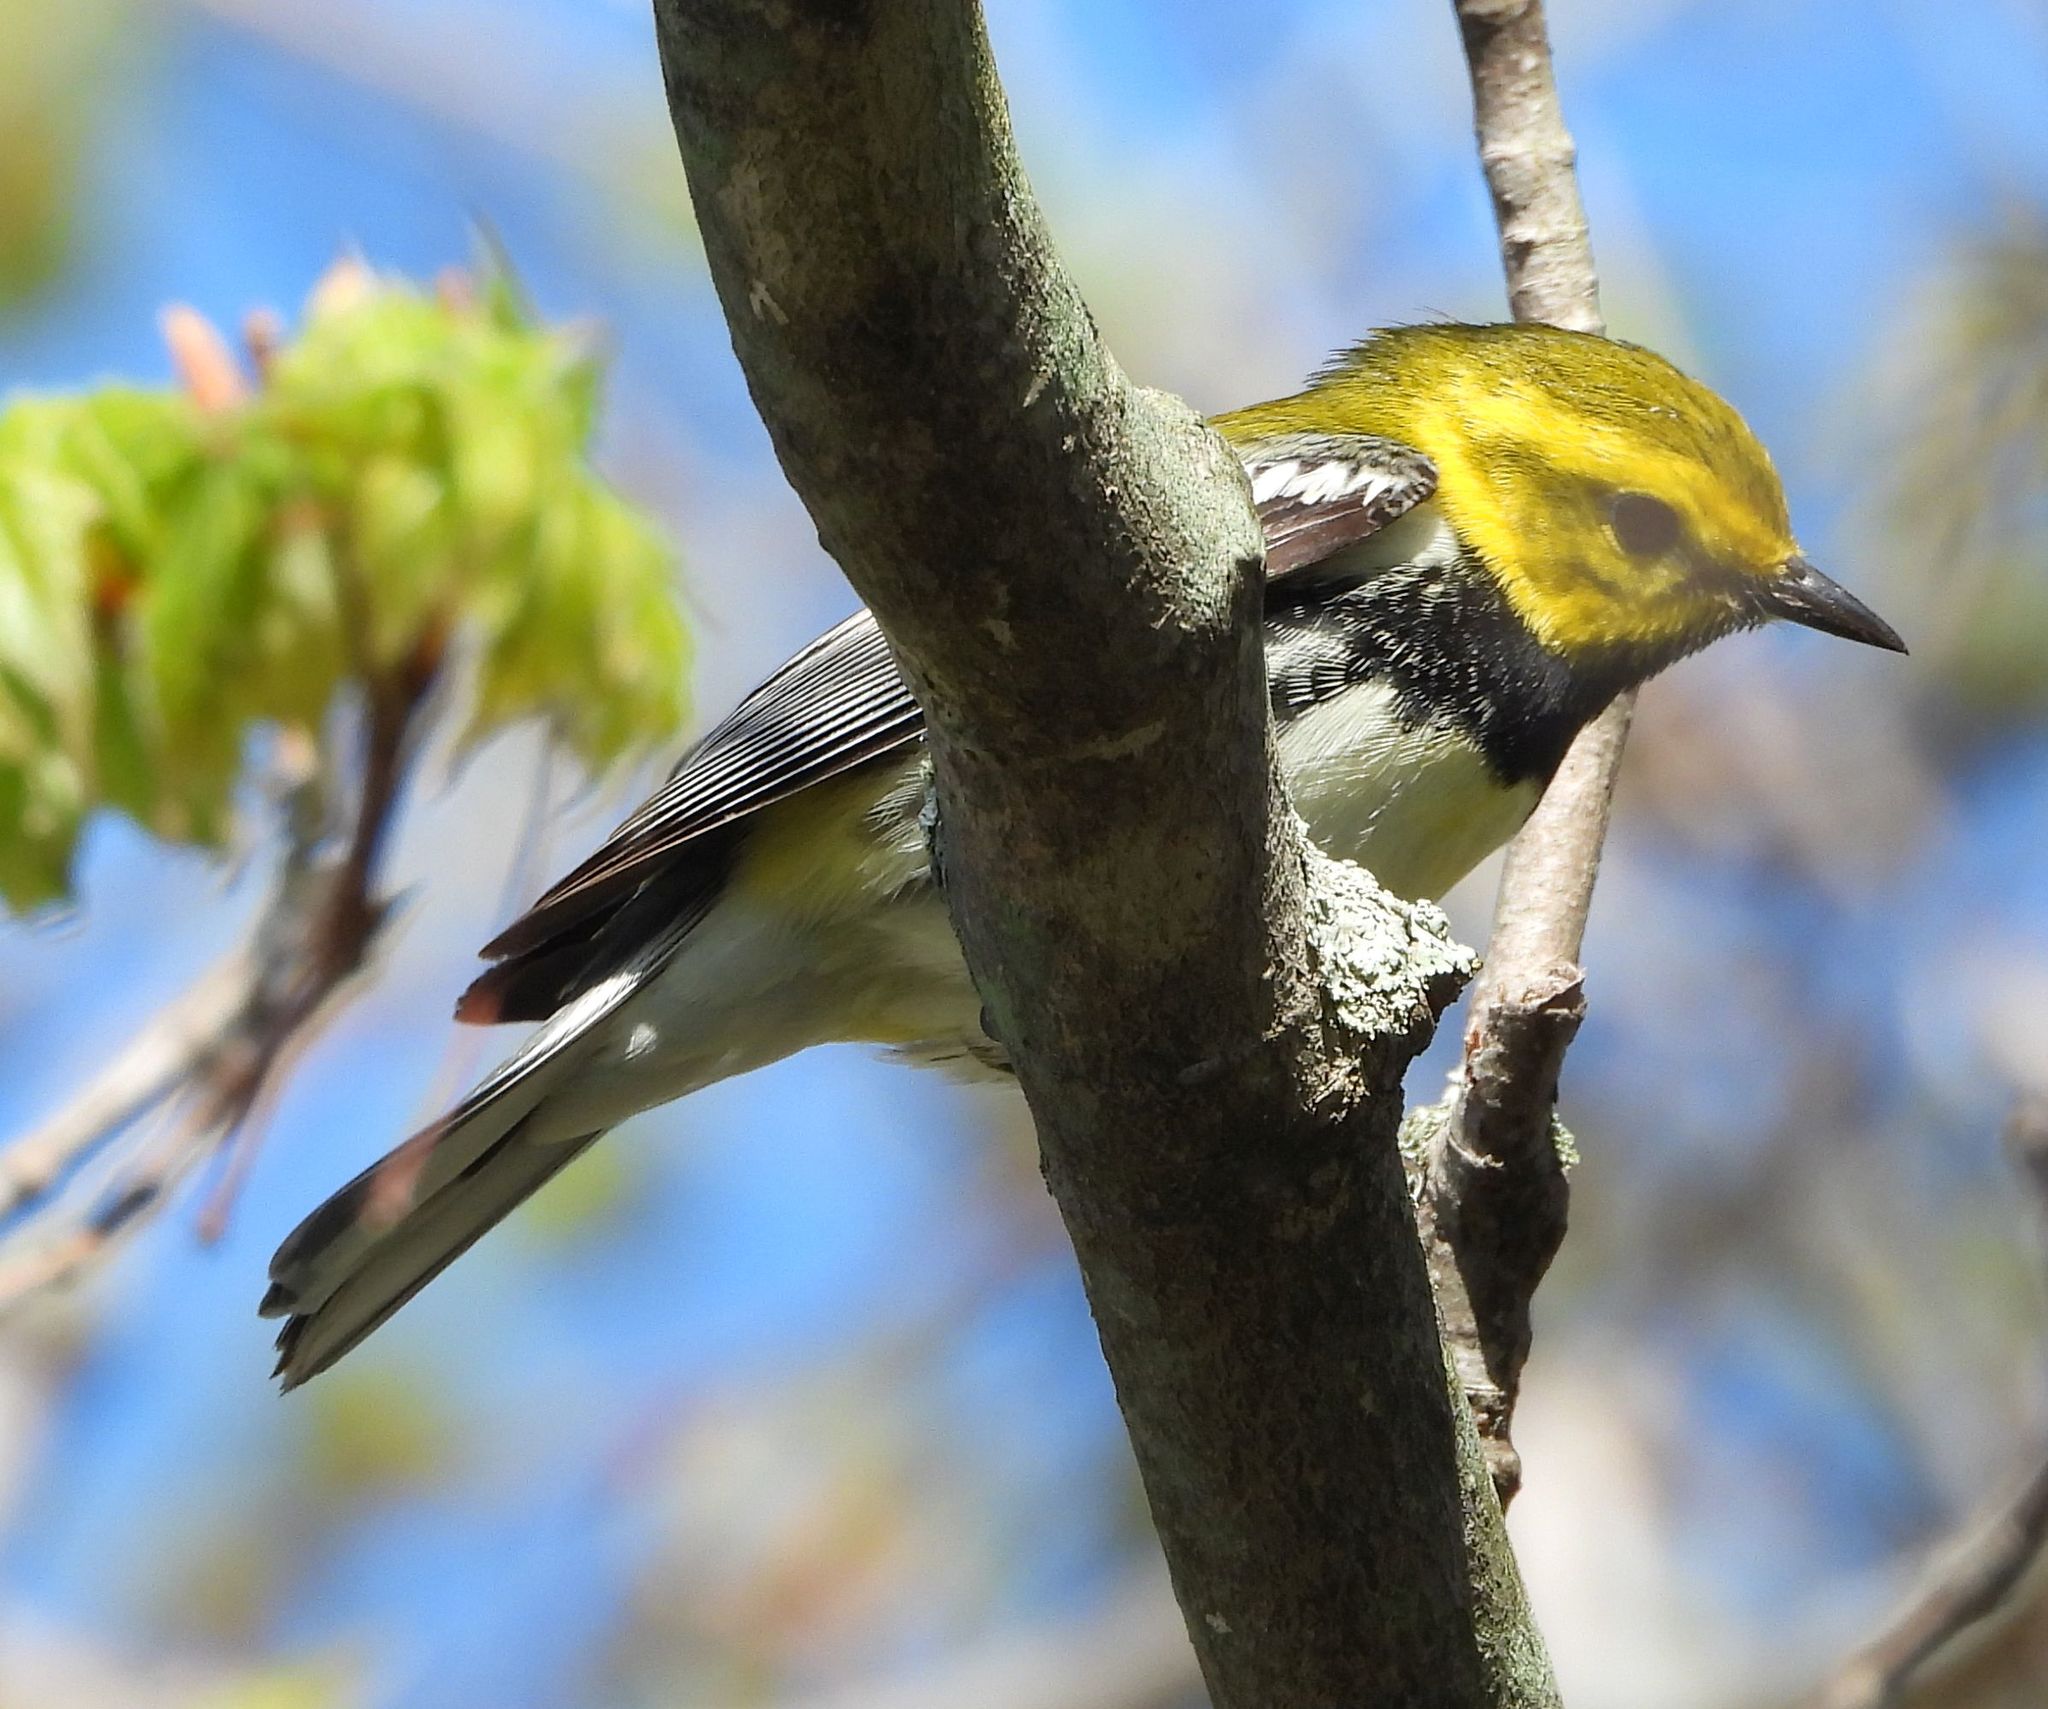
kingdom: Animalia
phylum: Chordata
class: Aves
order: Passeriformes
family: Parulidae
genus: Setophaga
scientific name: Setophaga virens
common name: Black-throated green warbler
